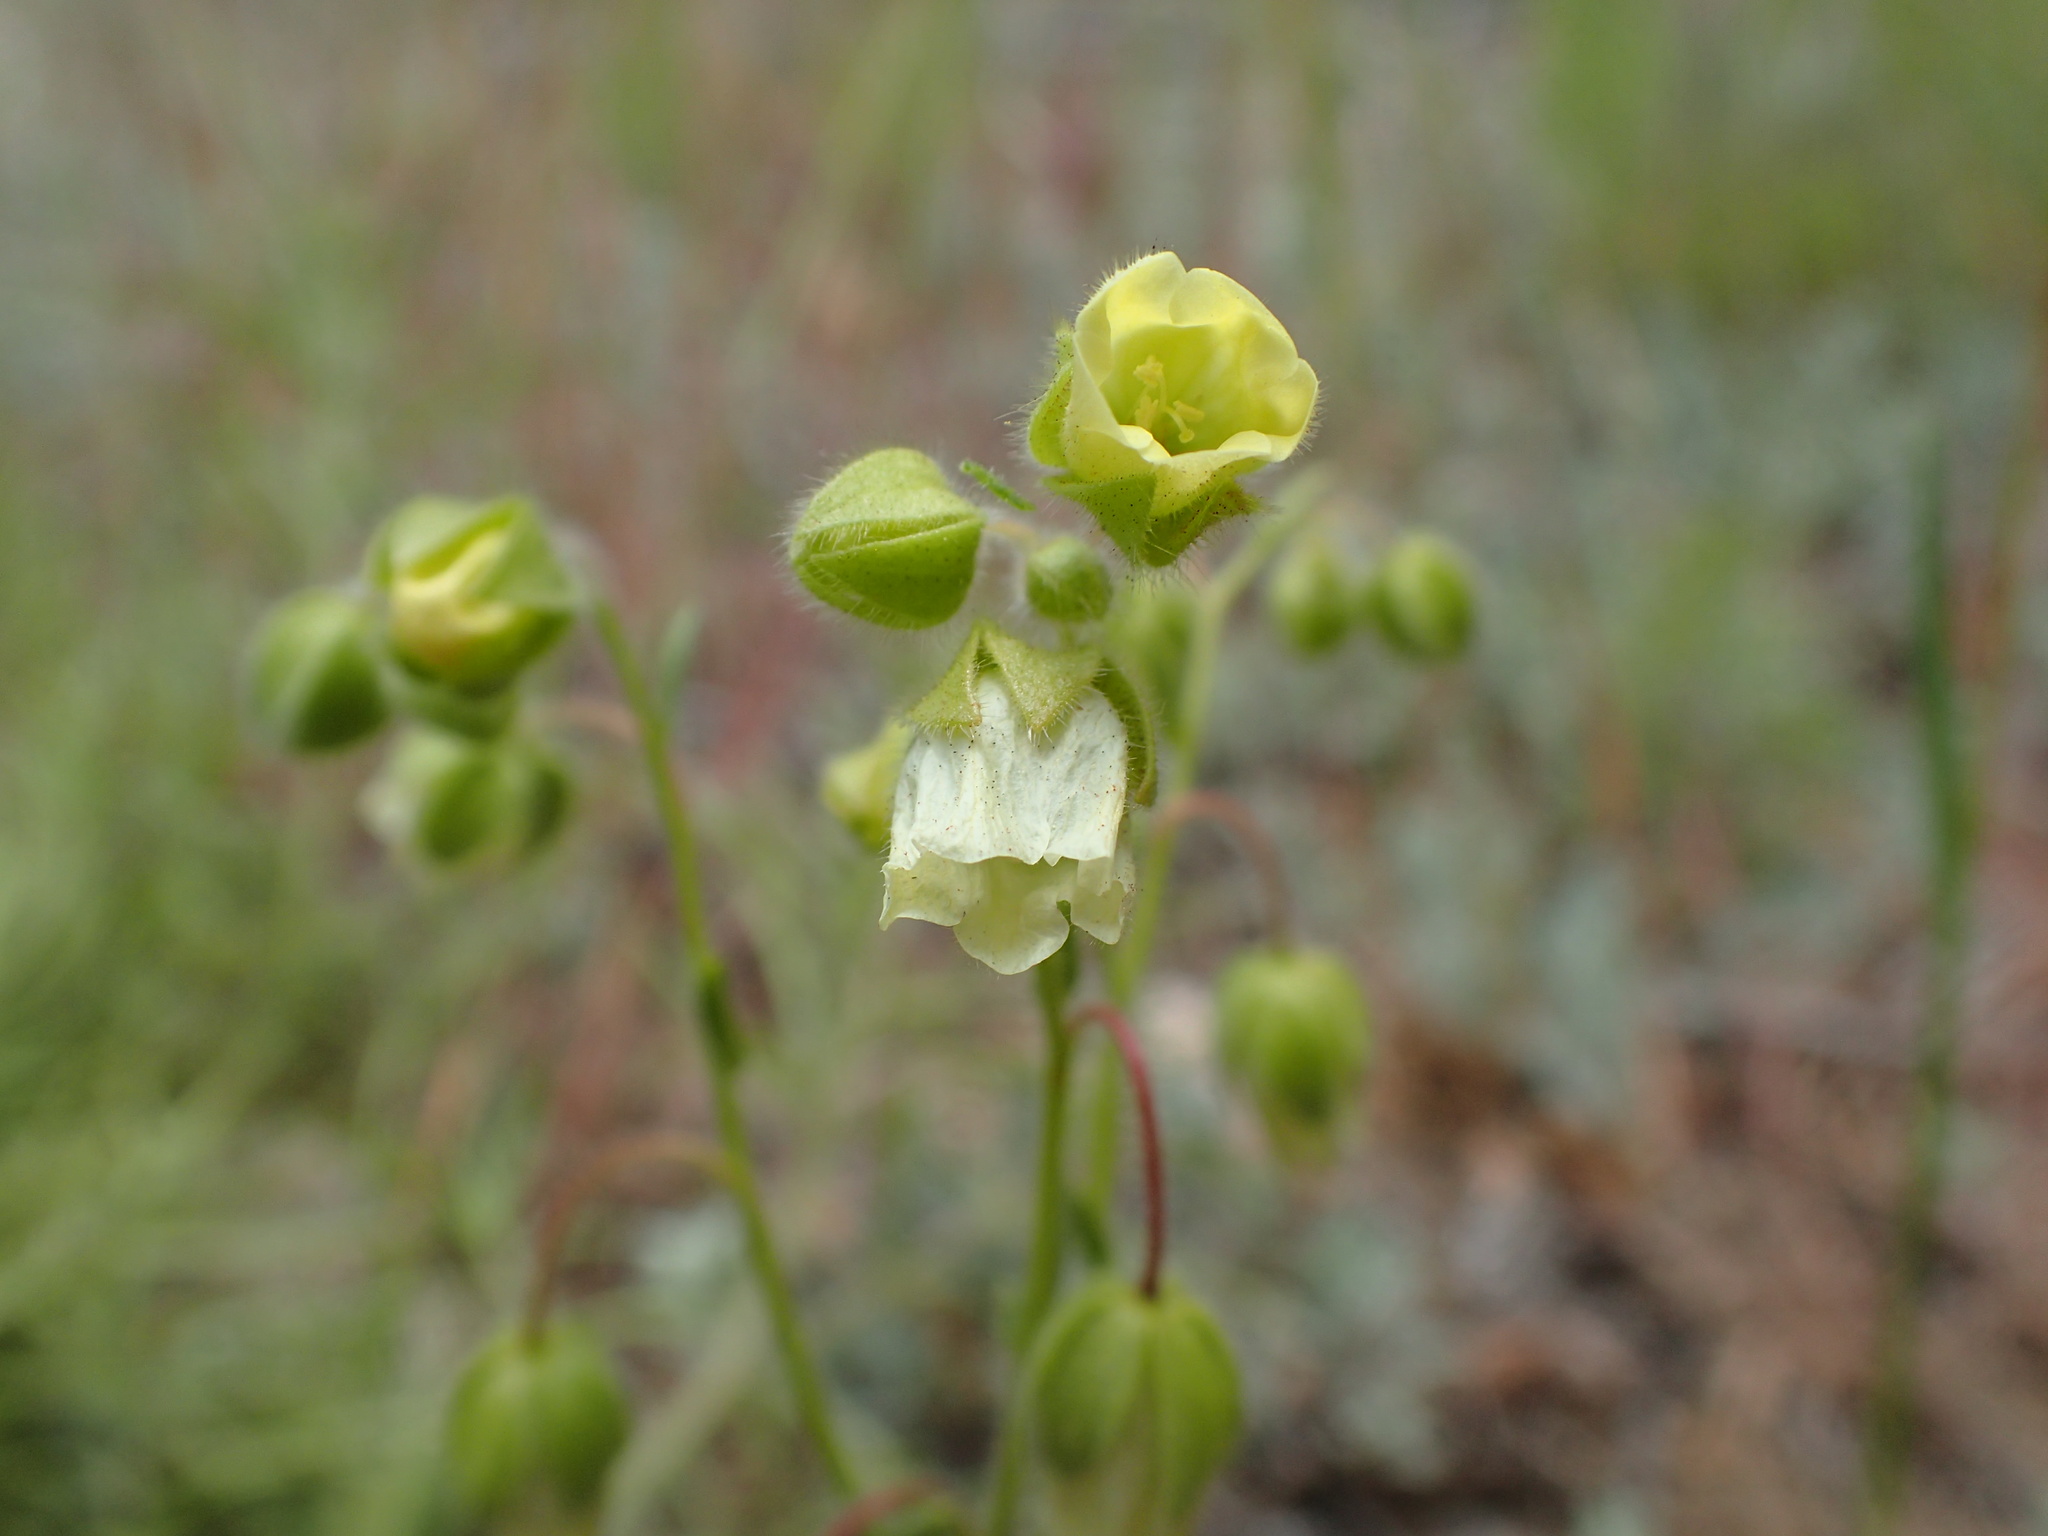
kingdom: Plantae
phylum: Tracheophyta
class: Magnoliopsida
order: Boraginales
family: Hydrophyllaceae
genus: Emmenanthe
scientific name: Emmenanthe penduliflora
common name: Whispering-bells
